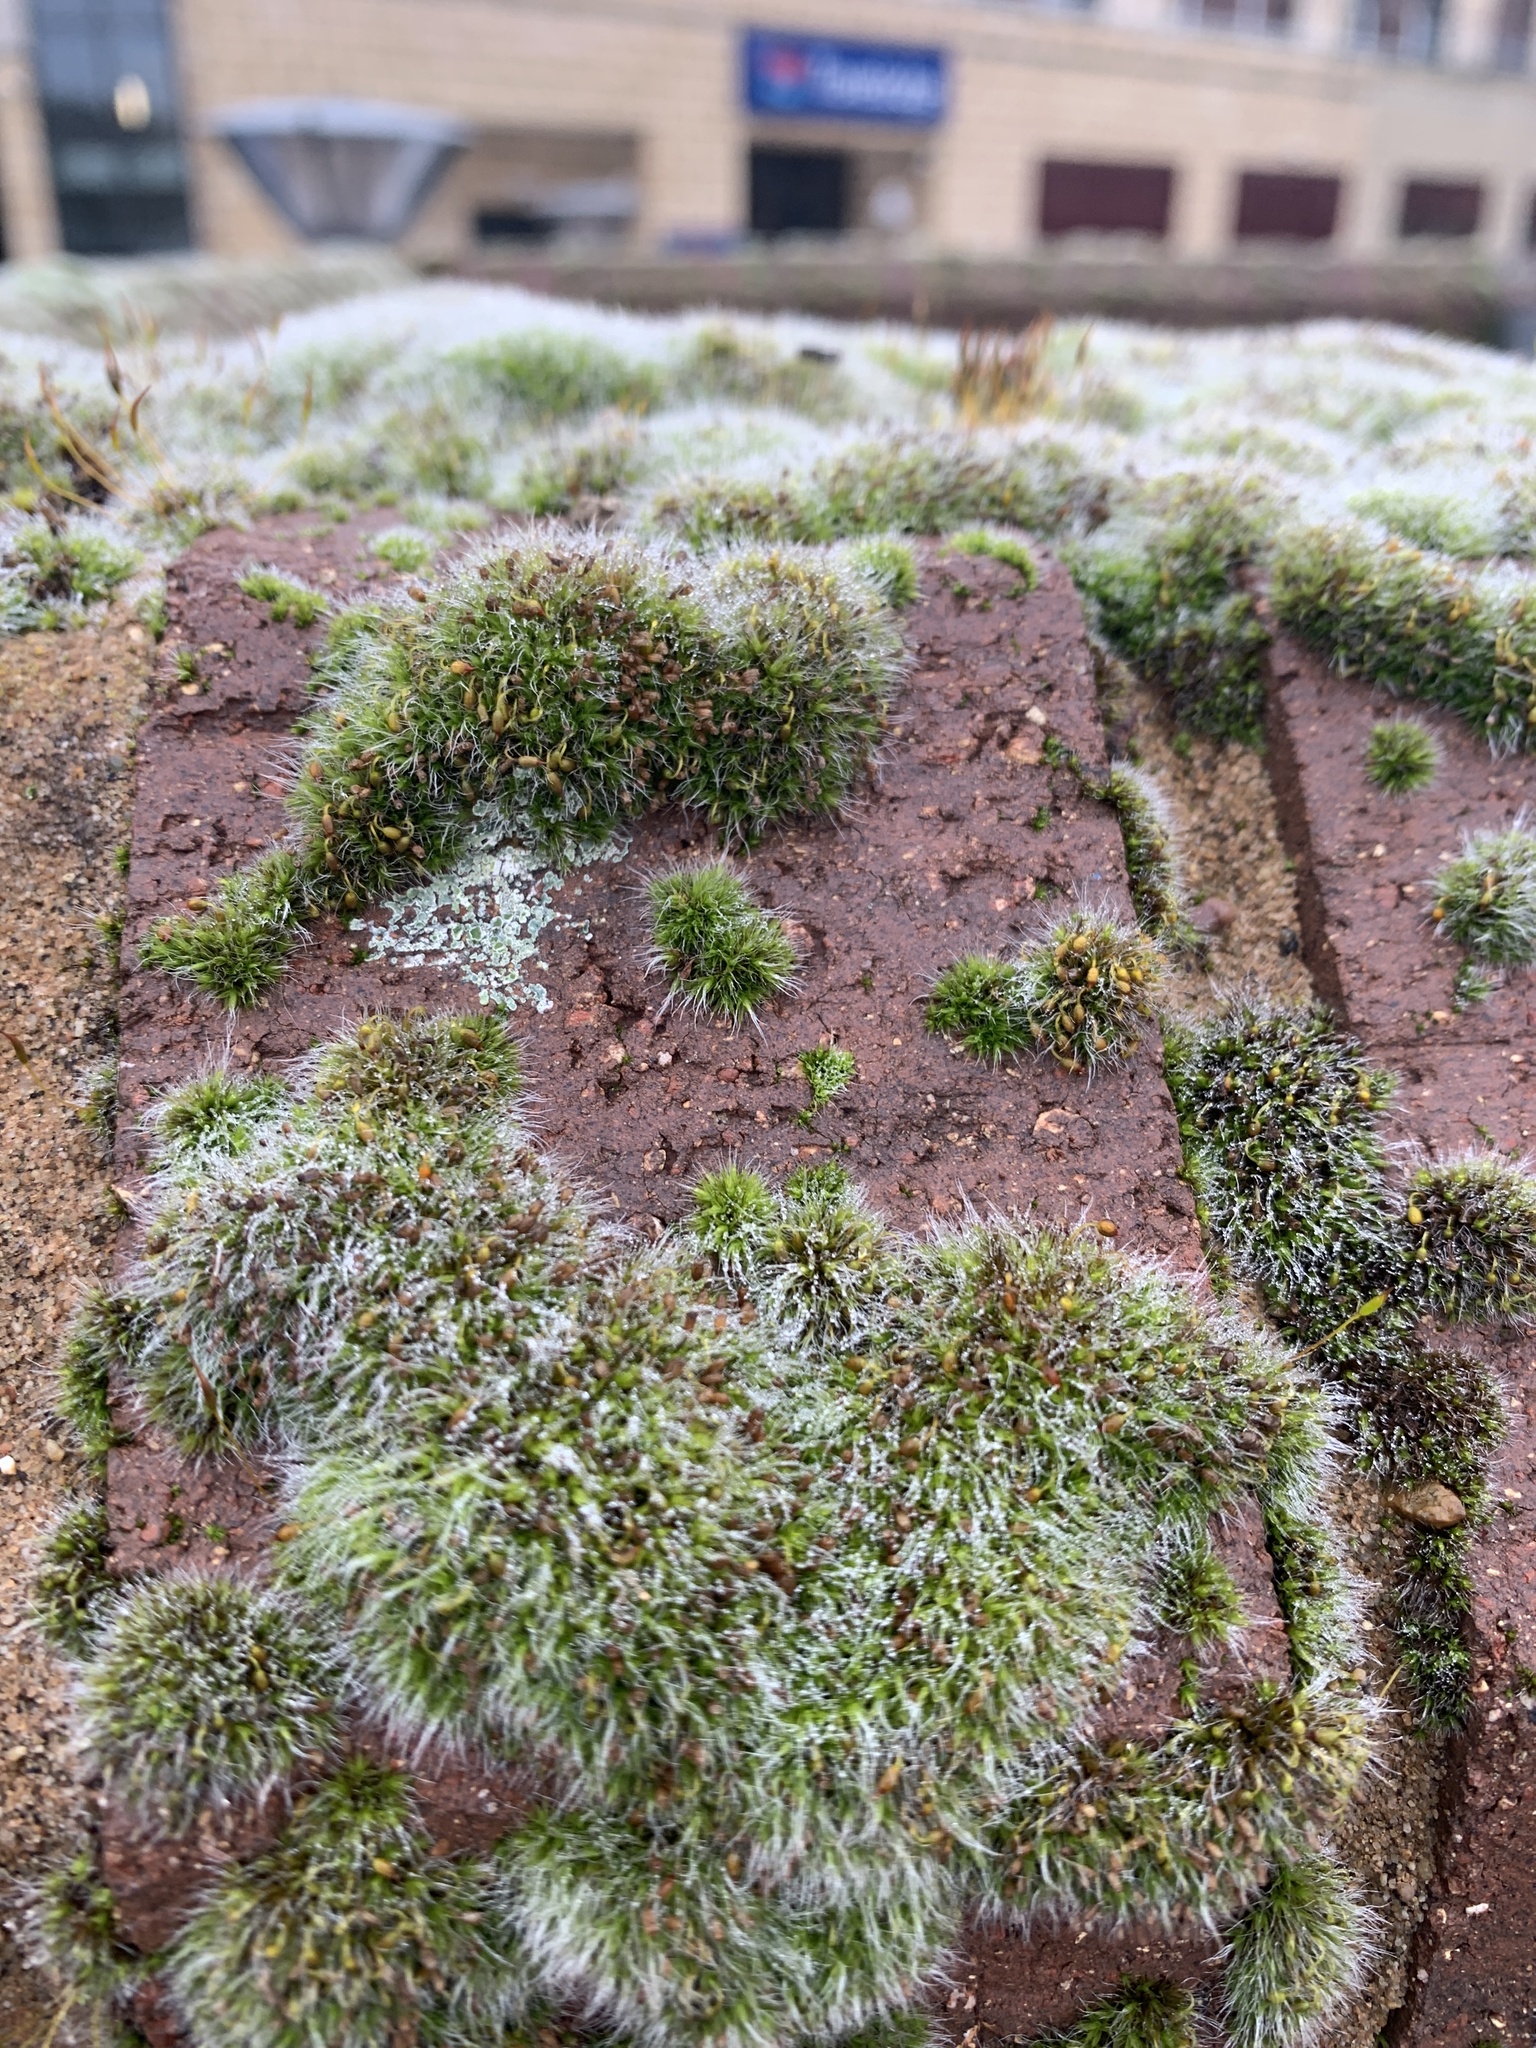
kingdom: Plantae
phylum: Bryophyta
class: Bryopsida
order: Grimmiales
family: Grimmiaceae
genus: Grimmia
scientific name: Grimmia pulvinata
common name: Grey-cushioned grimmia
